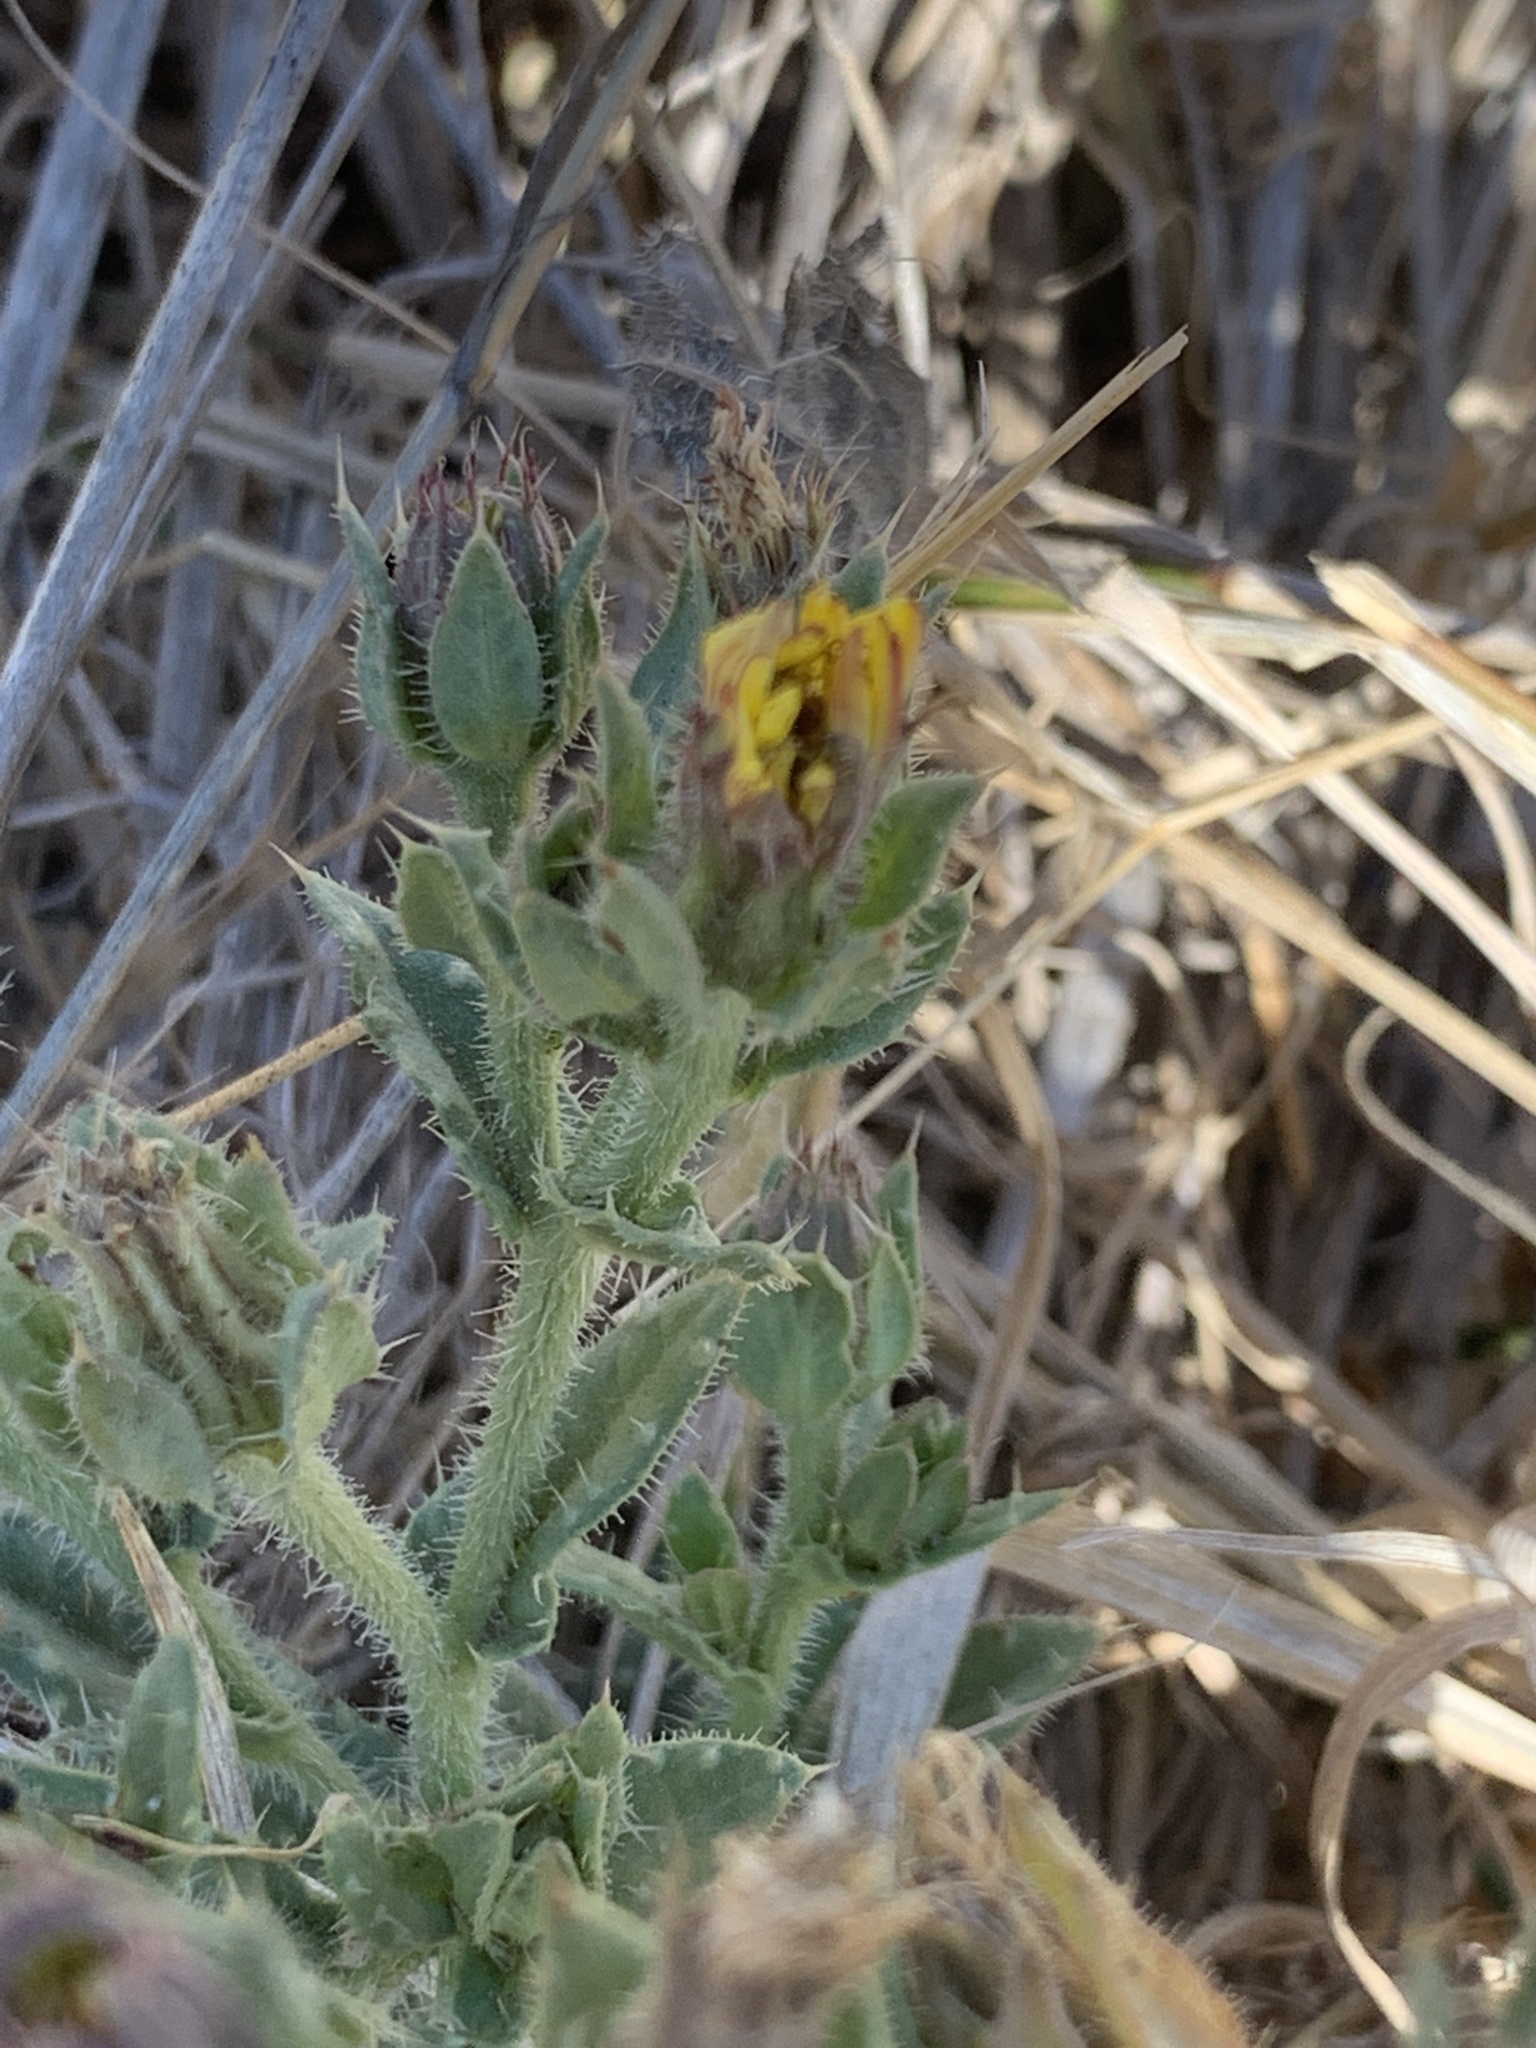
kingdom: Plantae
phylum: Tracheophyta
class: Magnoliopsida
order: Asterales
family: Asteraceae
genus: Helminthotheca
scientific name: Helminthotheca echioides
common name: Ox-tongue
